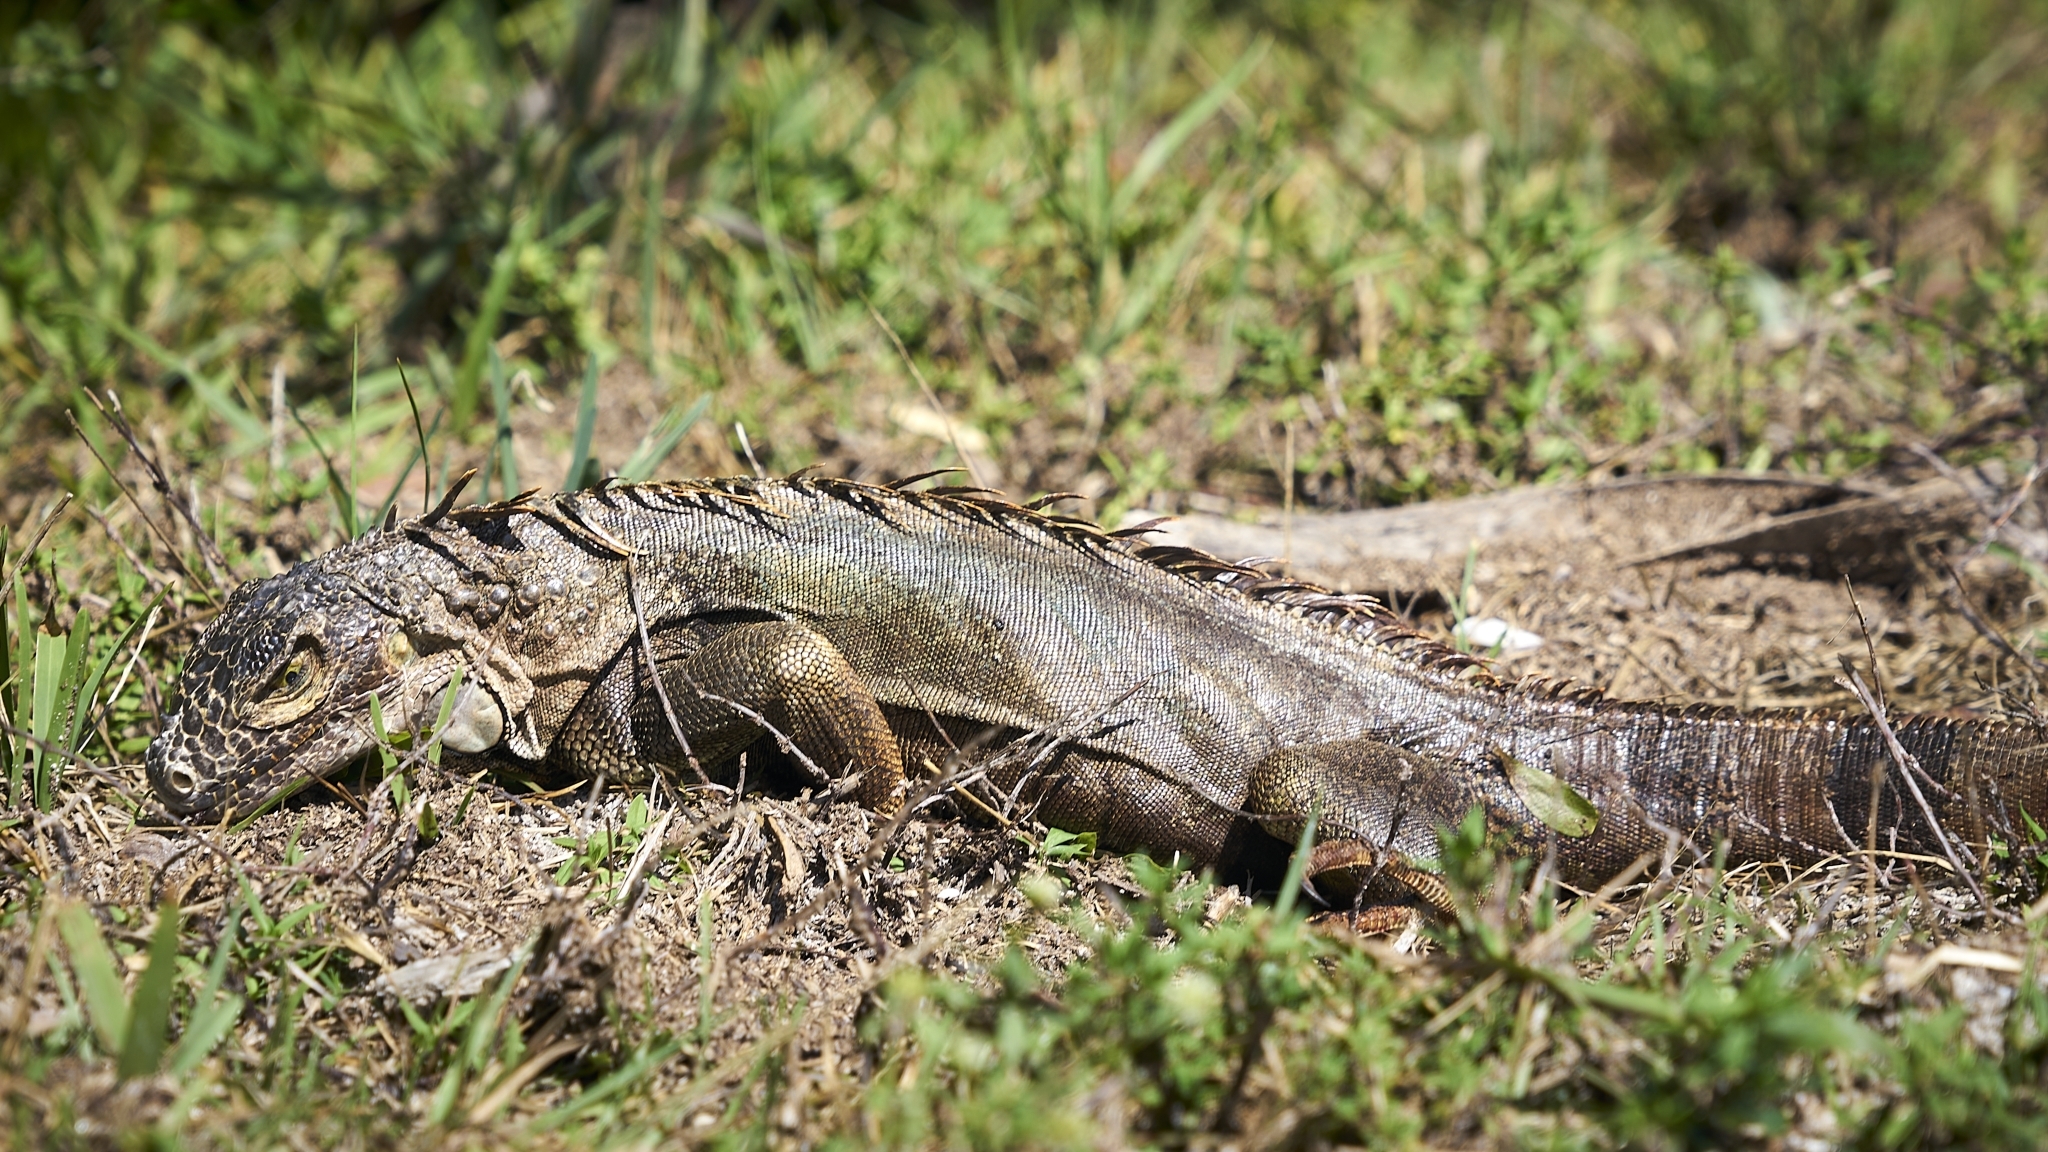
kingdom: Animalia
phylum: Chordata
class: Squamata
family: Iguanidae
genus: Iguana
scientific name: Iguana iguana
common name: Green iguana
